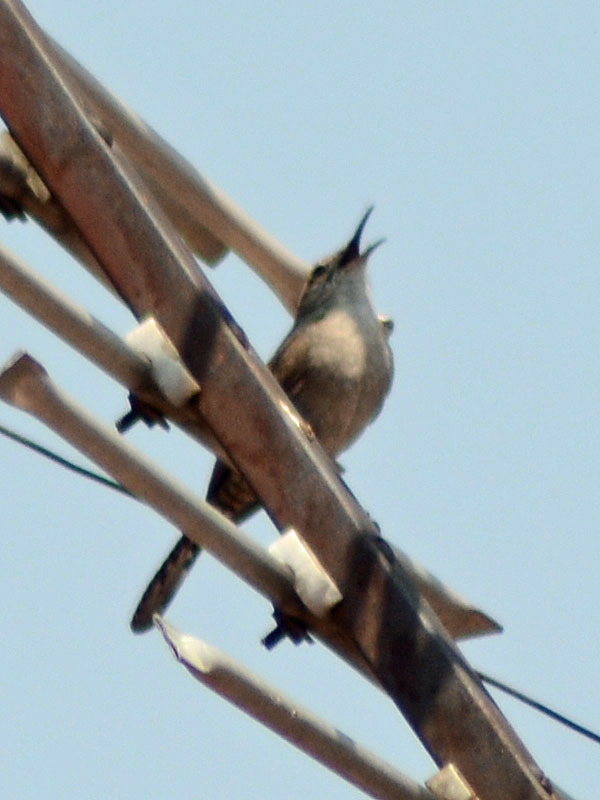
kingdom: Animalia
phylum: Chordata
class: Aves
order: Passeriformes
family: Troglodytidae
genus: Thryomanes
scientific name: Thryomanes bewickii
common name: Bewick's wren
